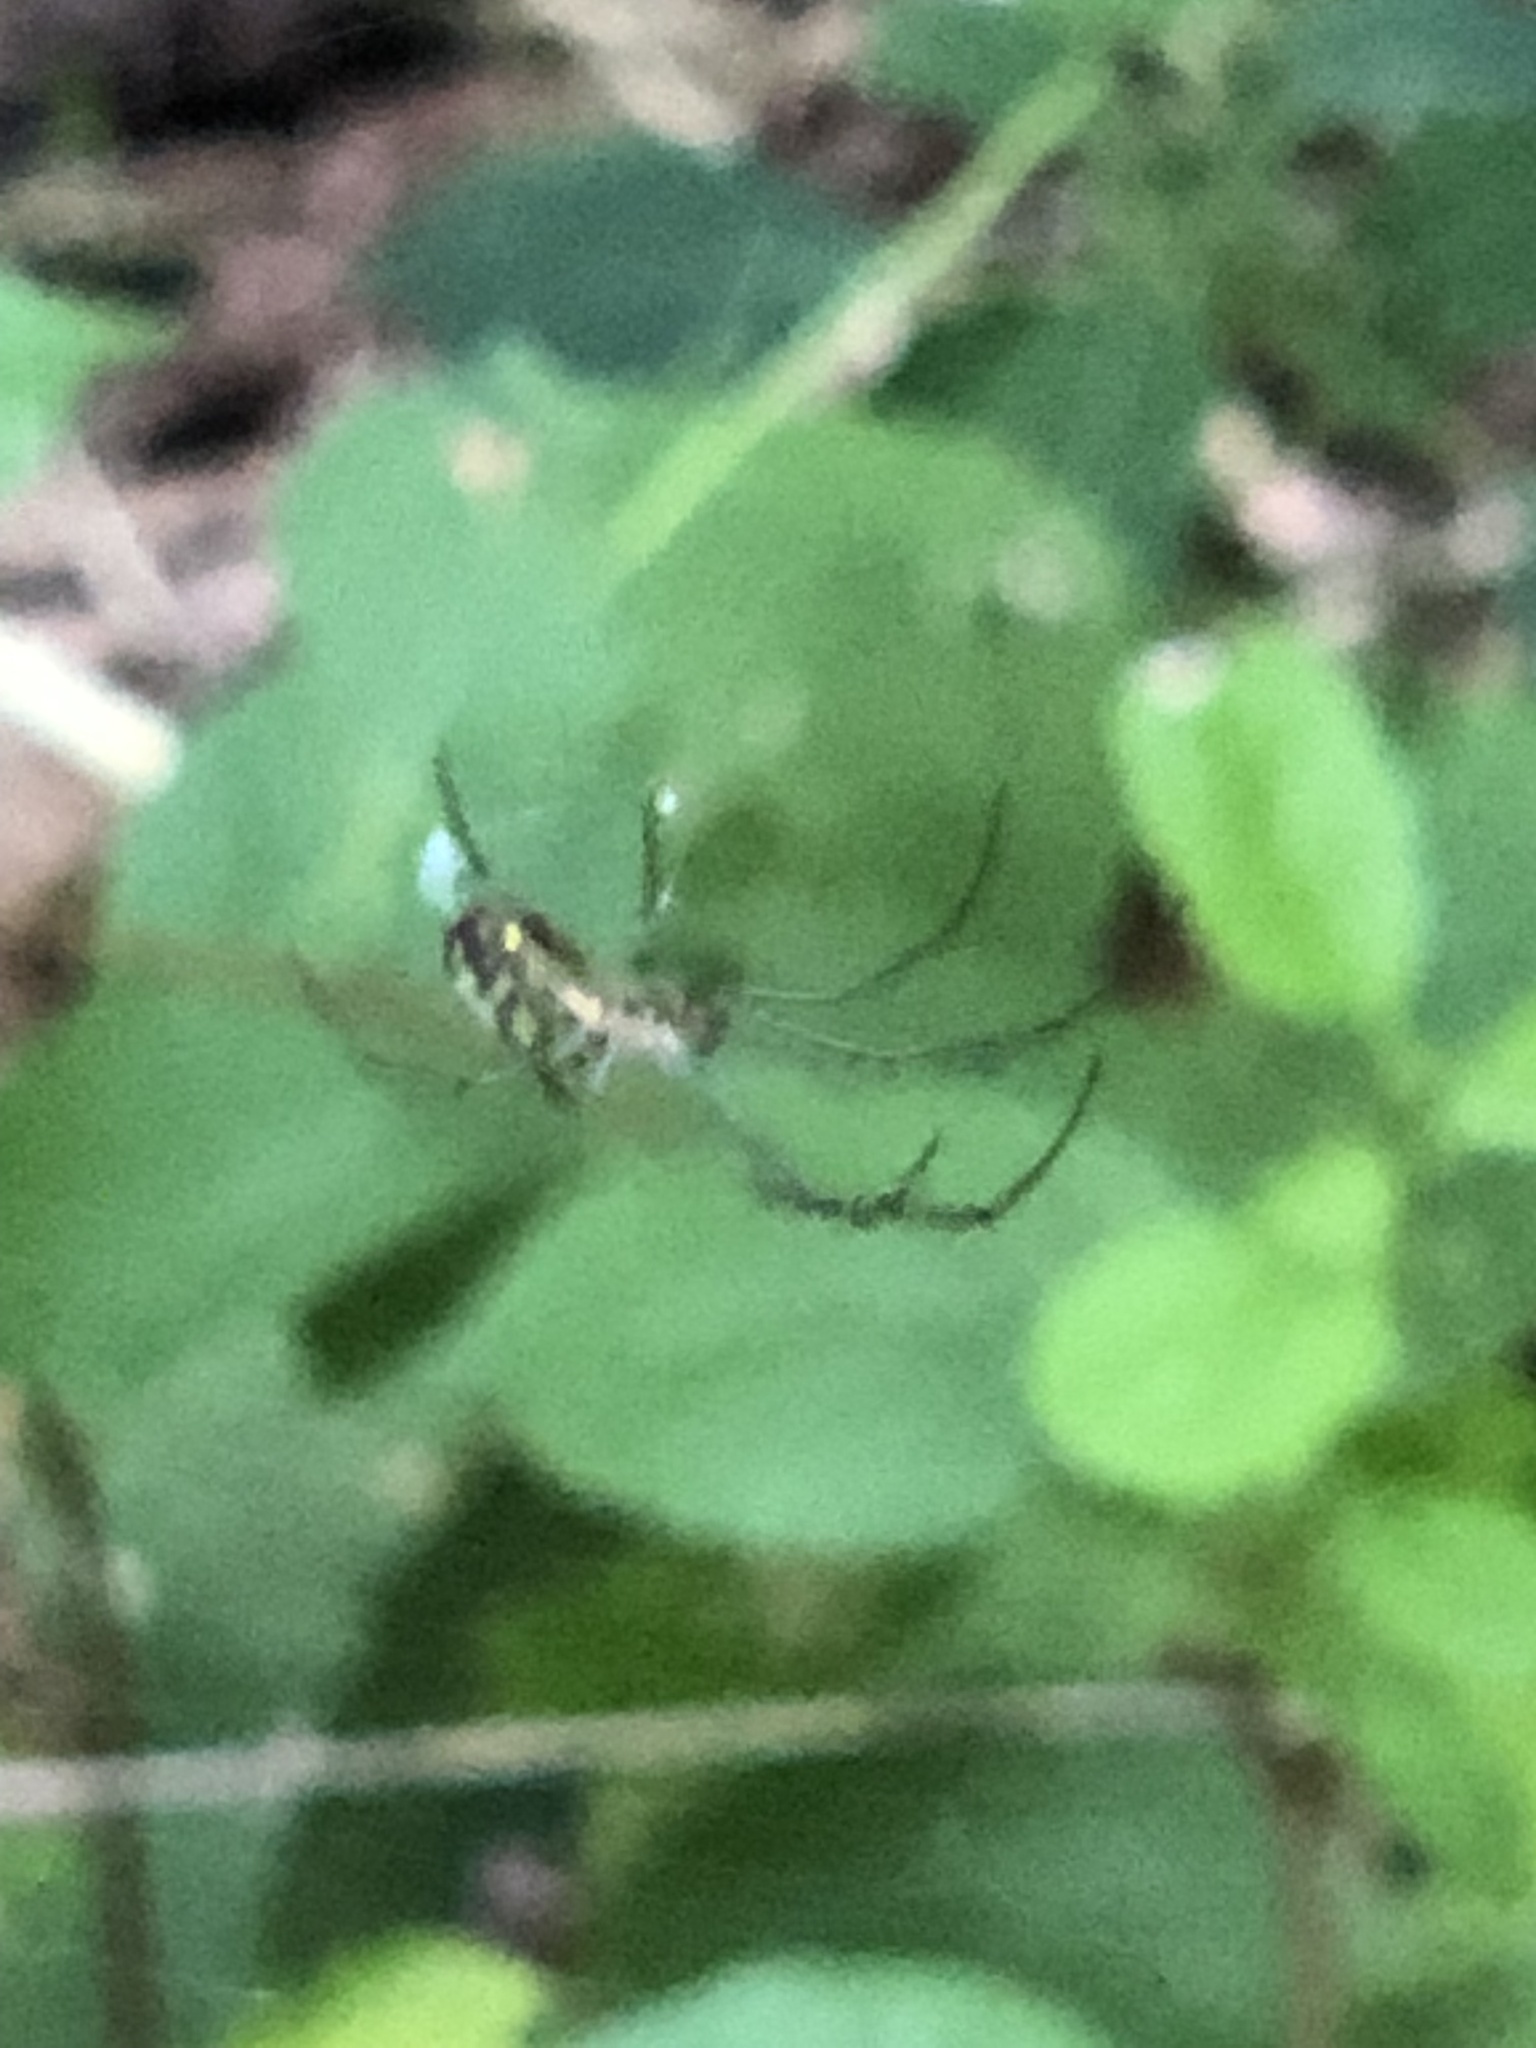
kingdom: Animalia
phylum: Arthropoda
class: Arachnida
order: Araneae
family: Tetragnathidae
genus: Leucauge
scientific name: Leucauge venusta
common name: Longjawed orb weavers
